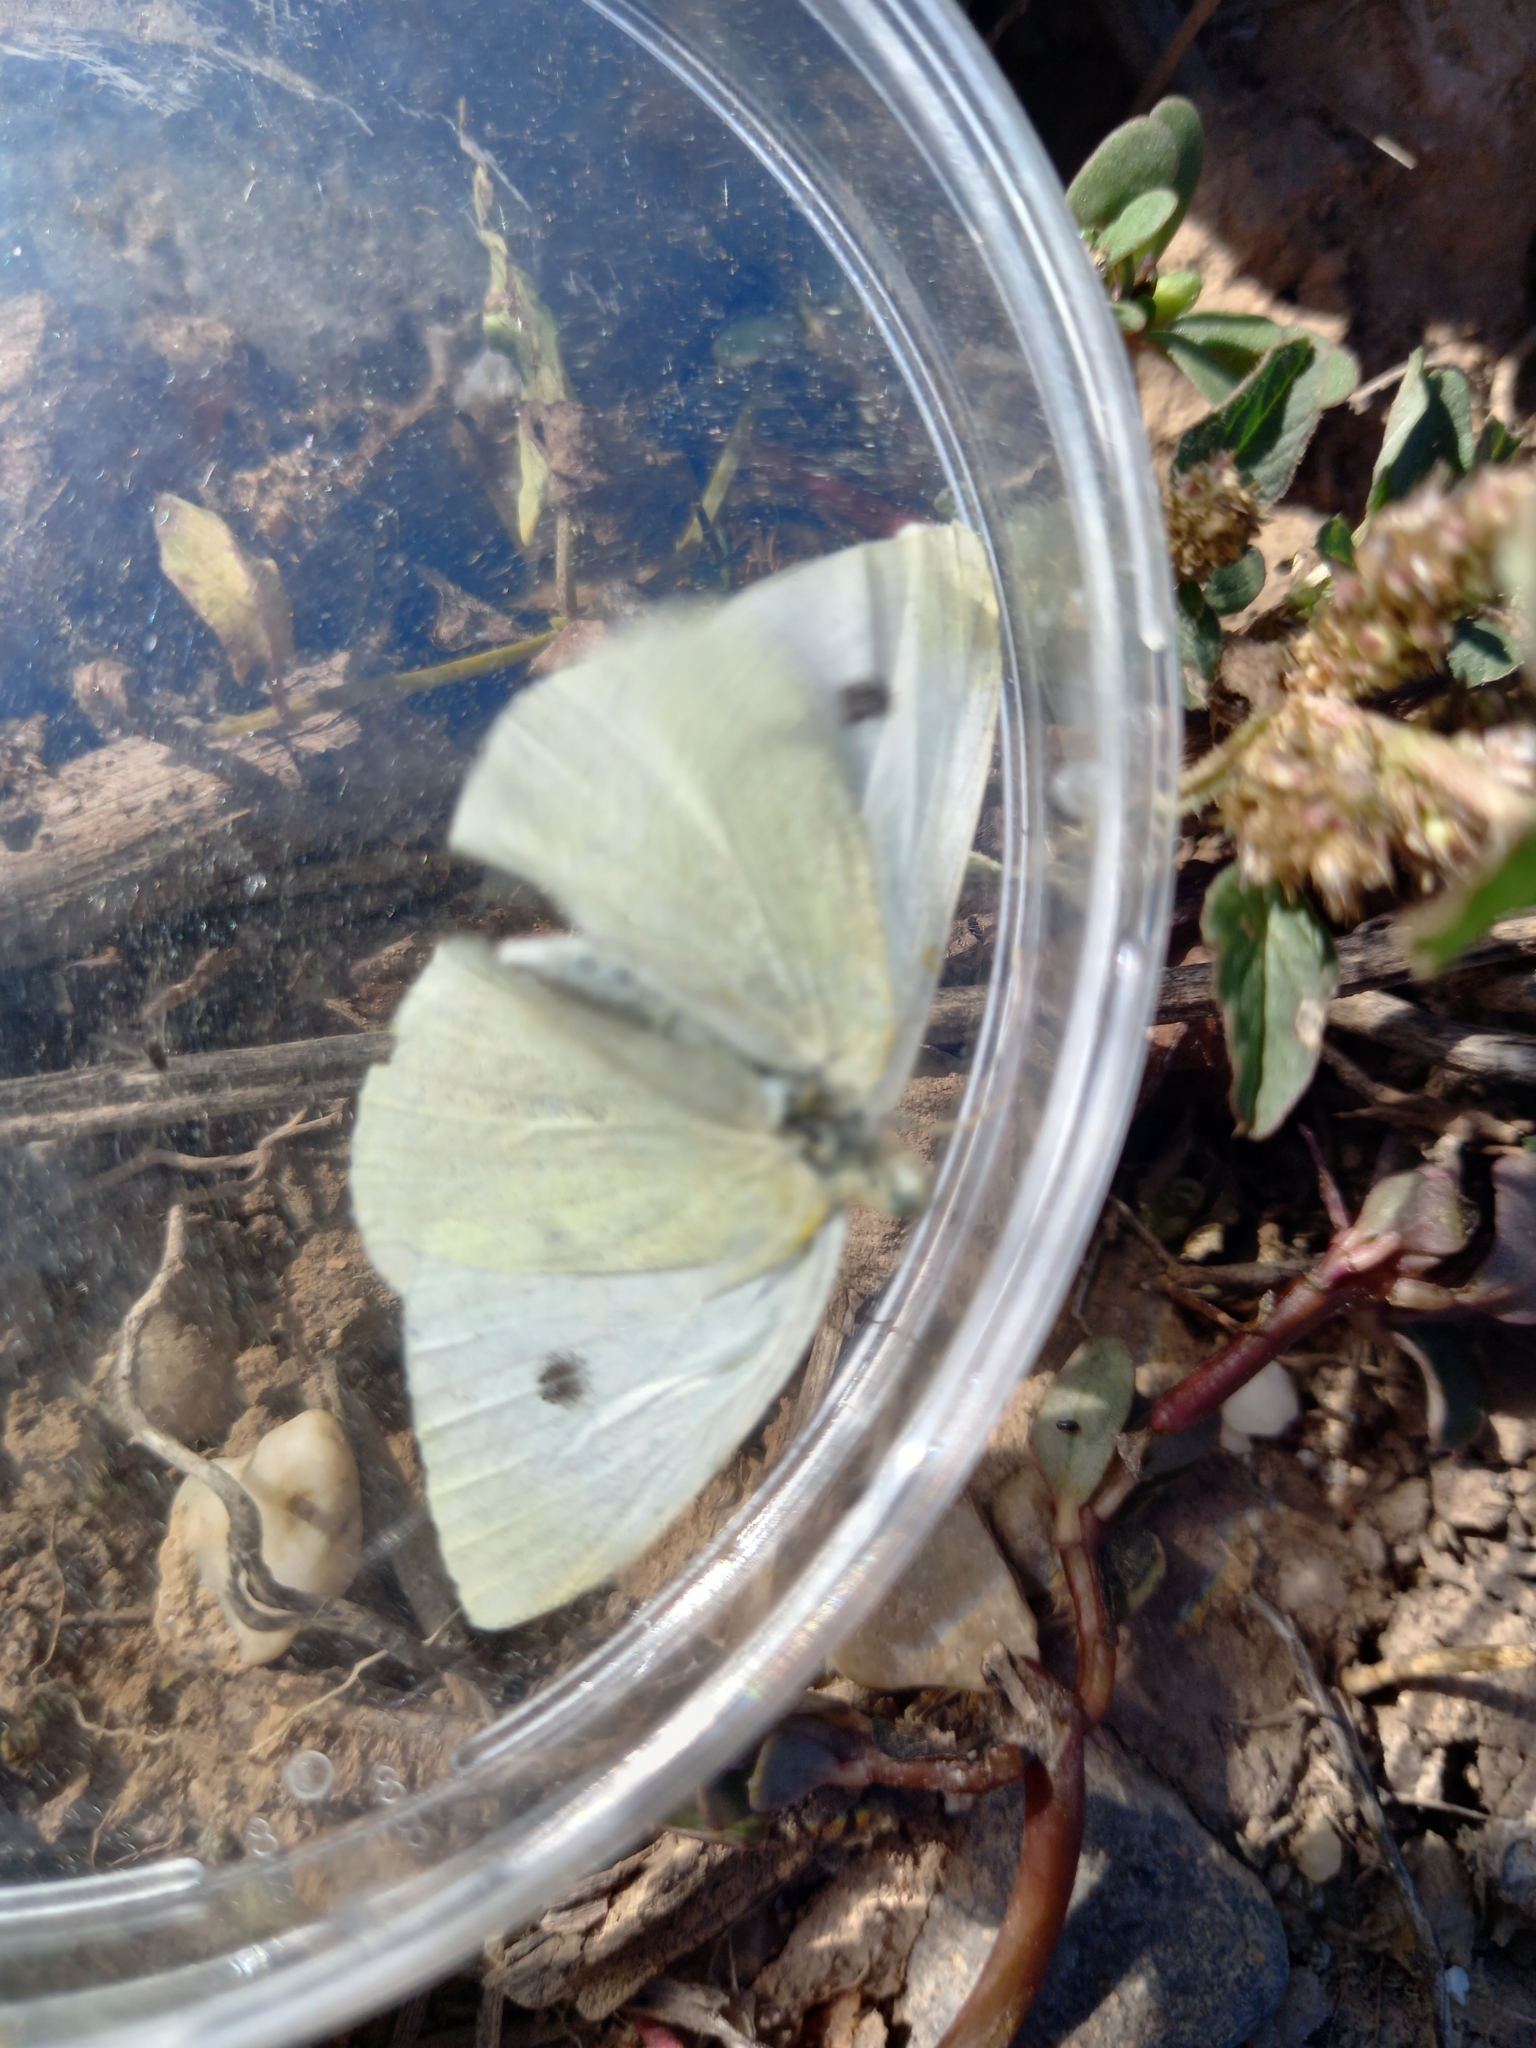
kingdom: Animalia
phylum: Arthropoda
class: Insecta
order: Lepidoptera
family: Pieridae
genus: Pieris
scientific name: Pieris rapae
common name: Small white
